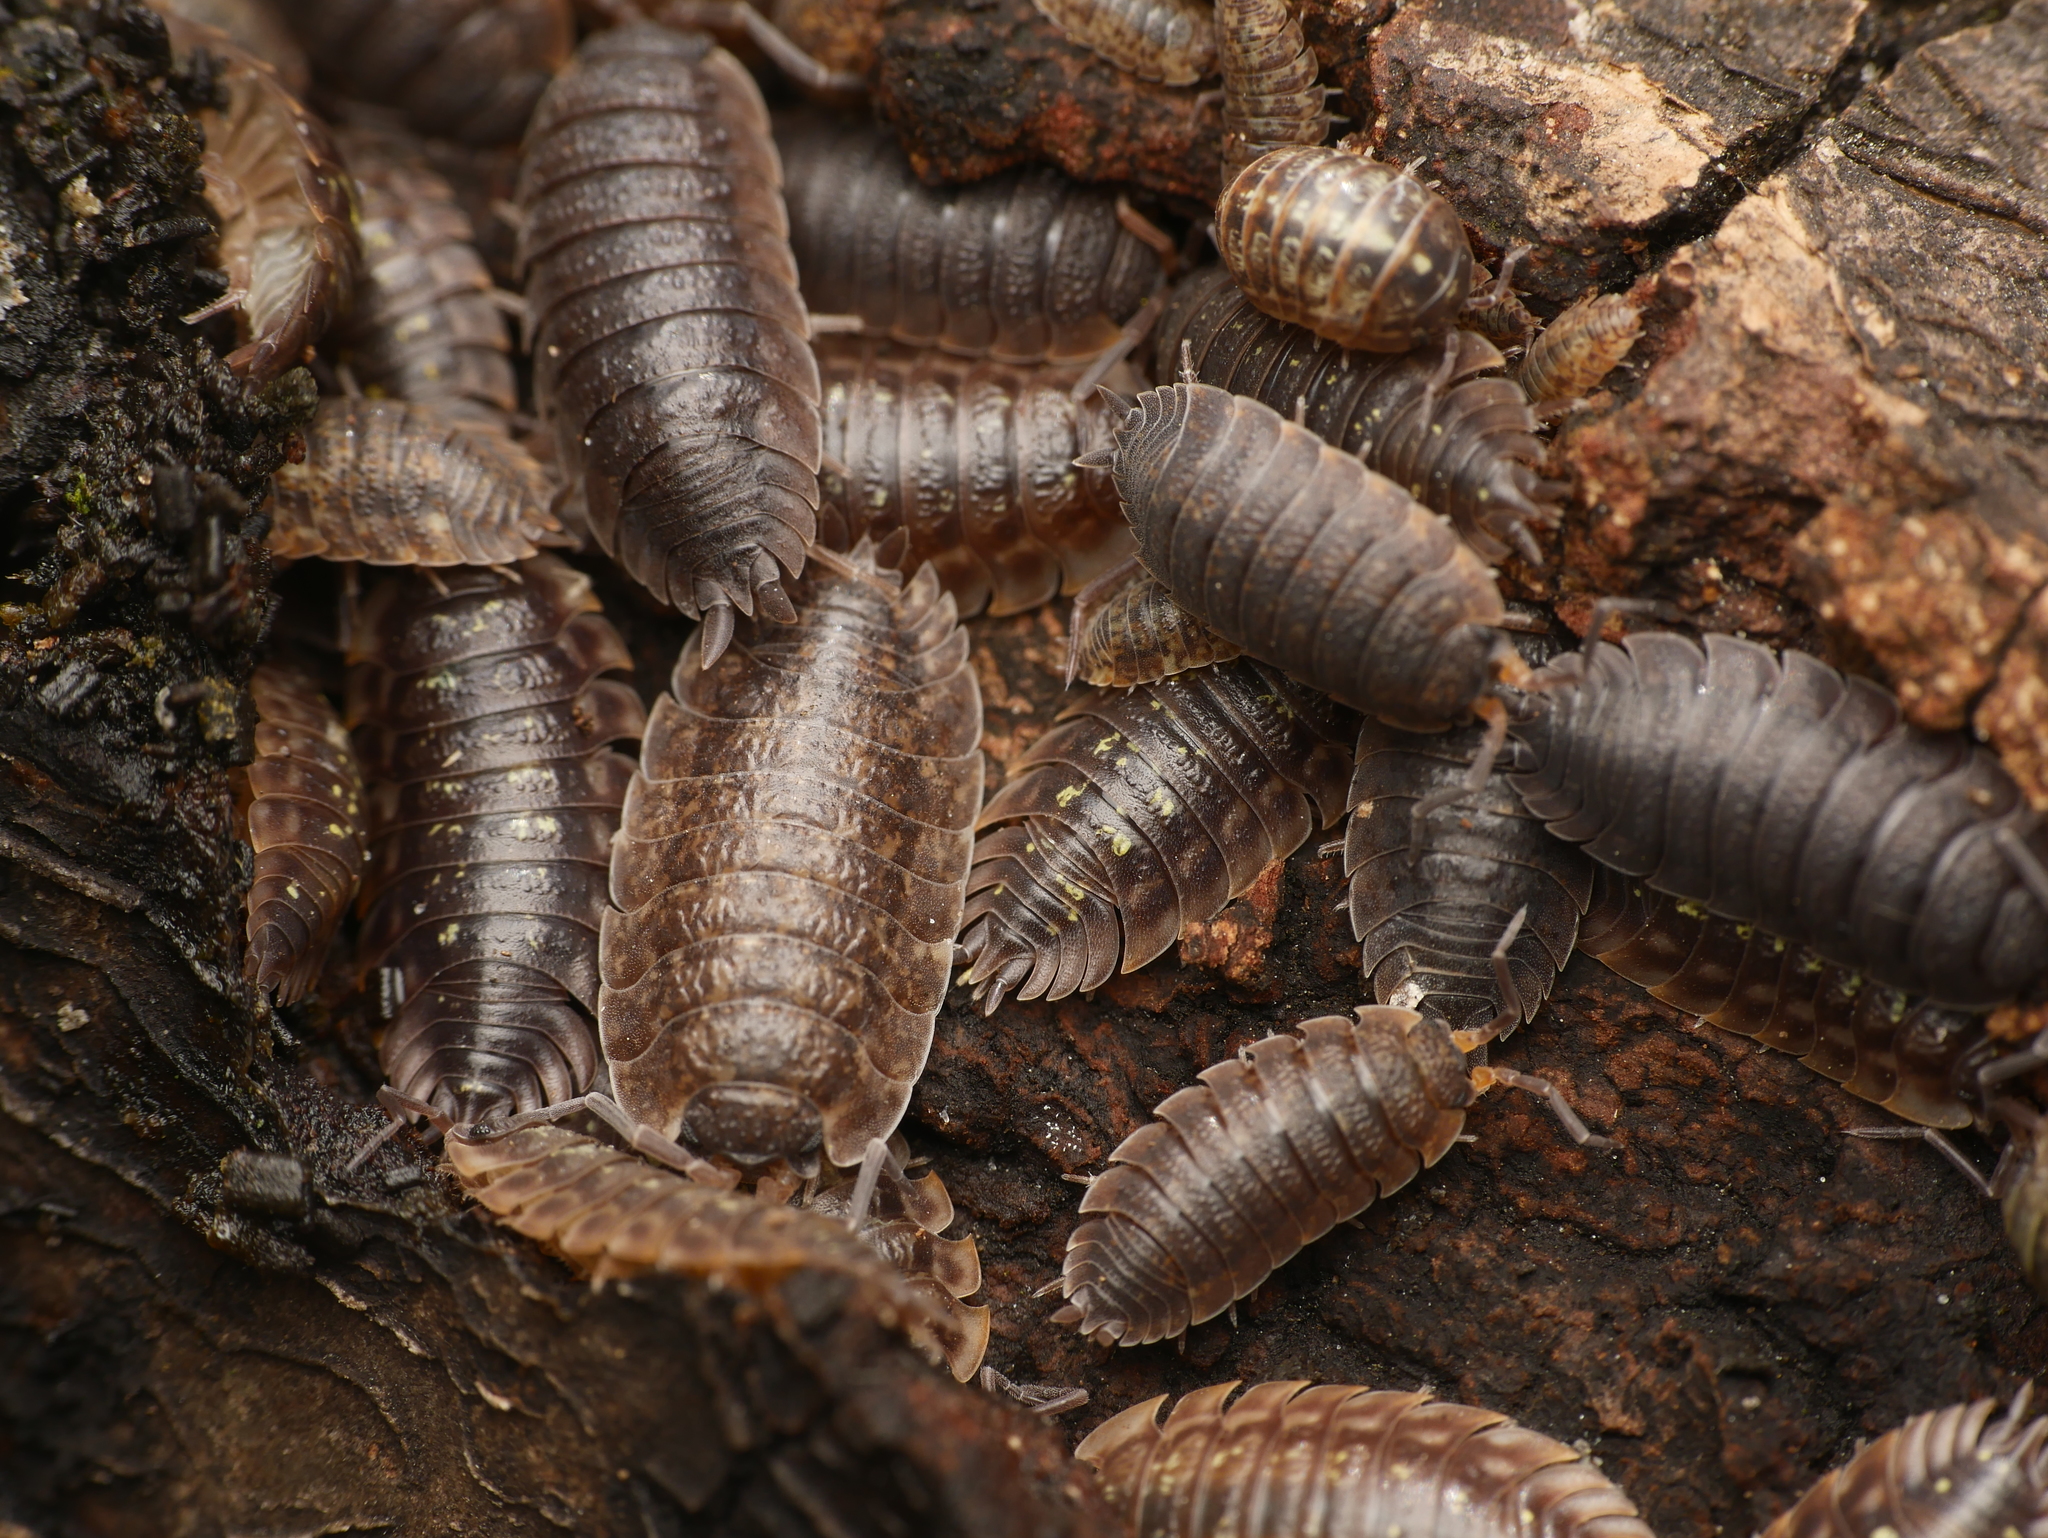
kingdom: Animalia
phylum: Arthropoda
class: Malacostraca
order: Isopoda
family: Porcellionidae
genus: Porcellio
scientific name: Porcellio scaber
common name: Common rough woodlouse
